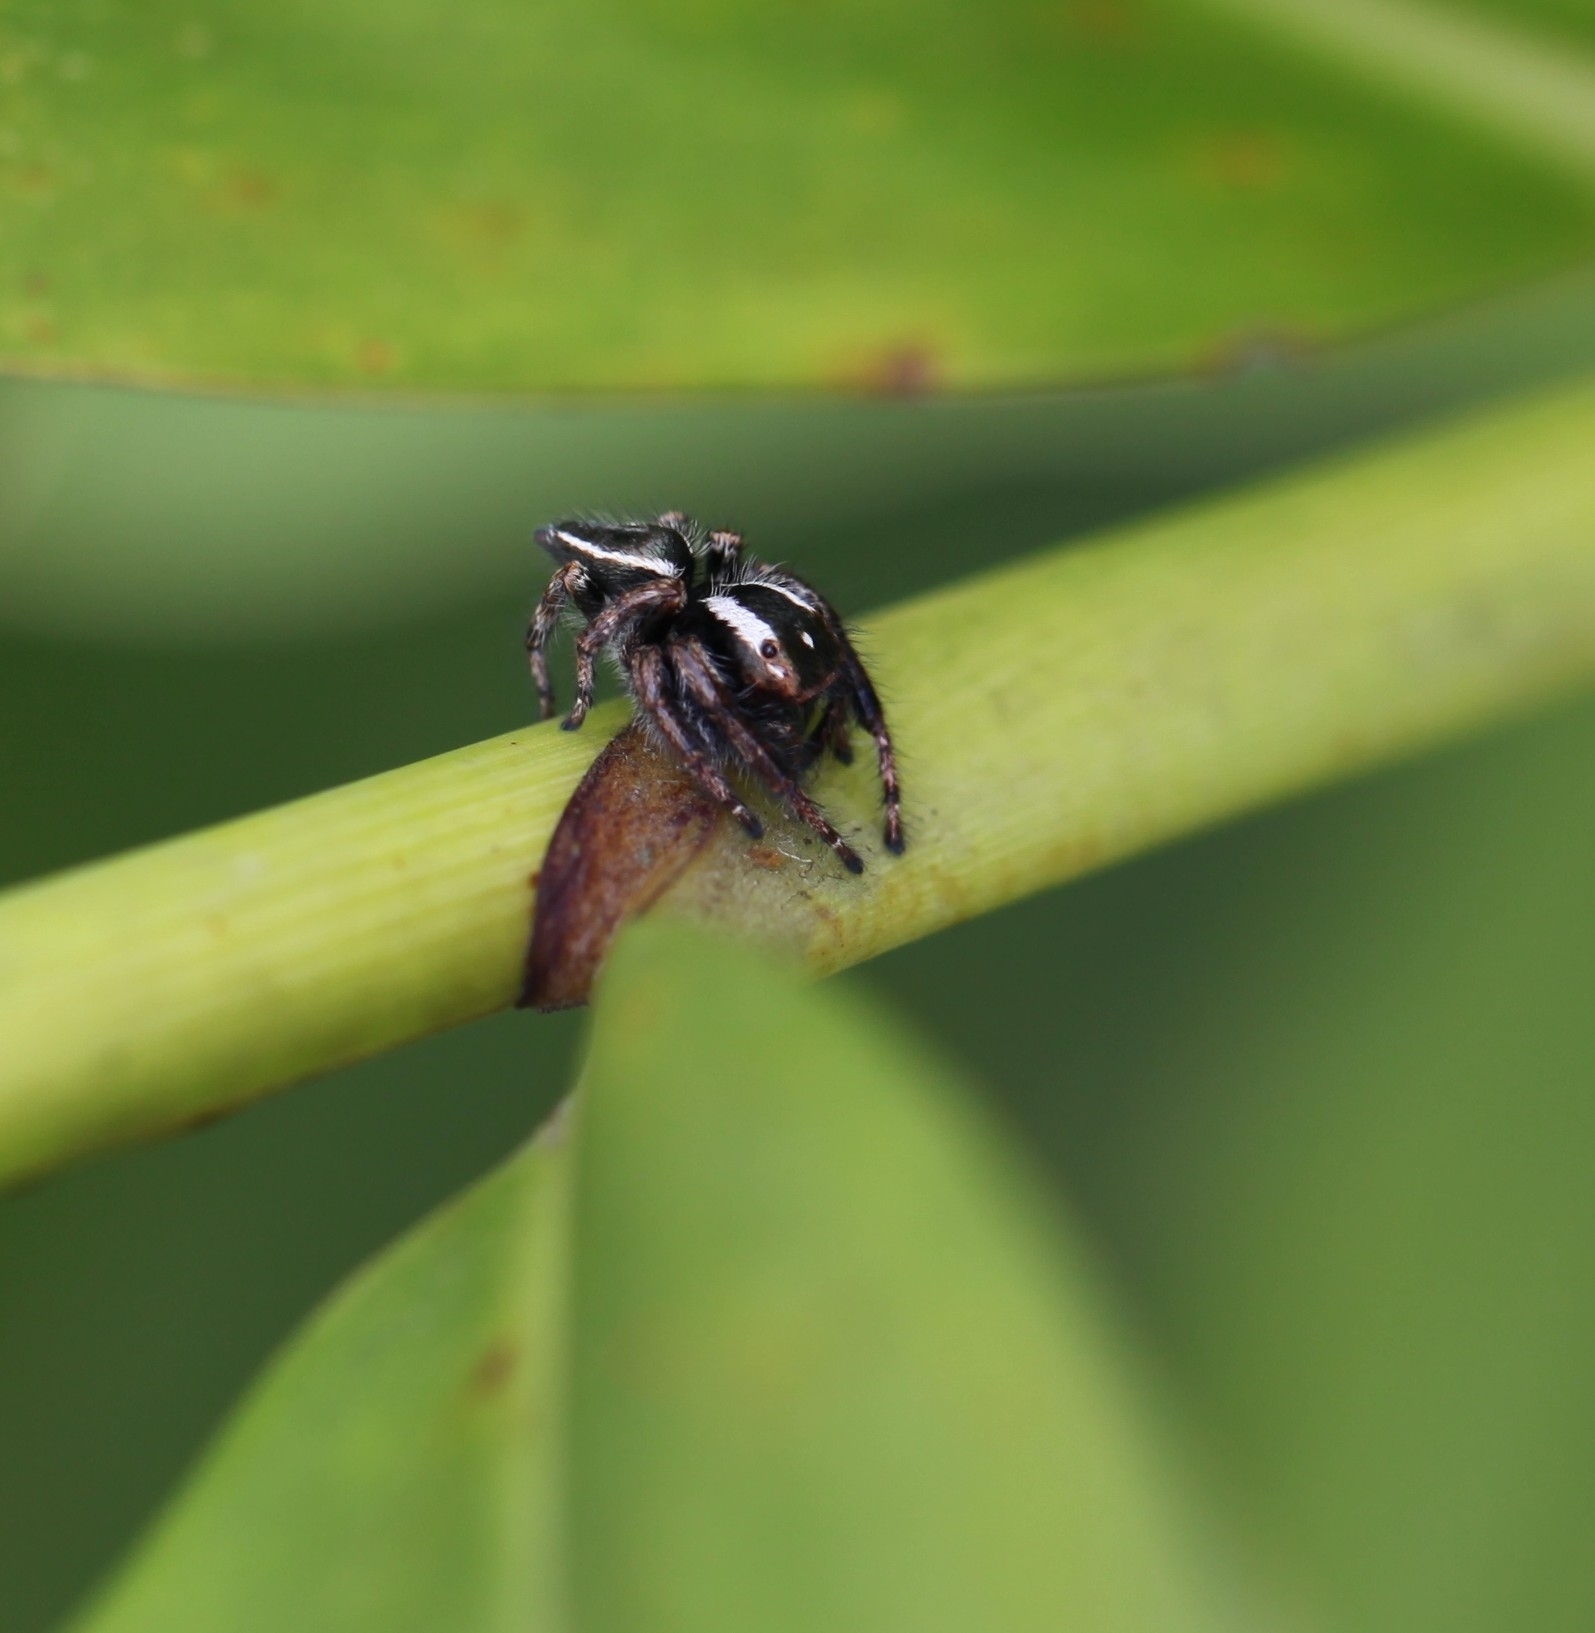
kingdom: Animalia
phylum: Arthropoda
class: Arachnida
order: Araneae
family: Salticidae
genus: Carrhotus
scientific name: Carrhotus viduus
